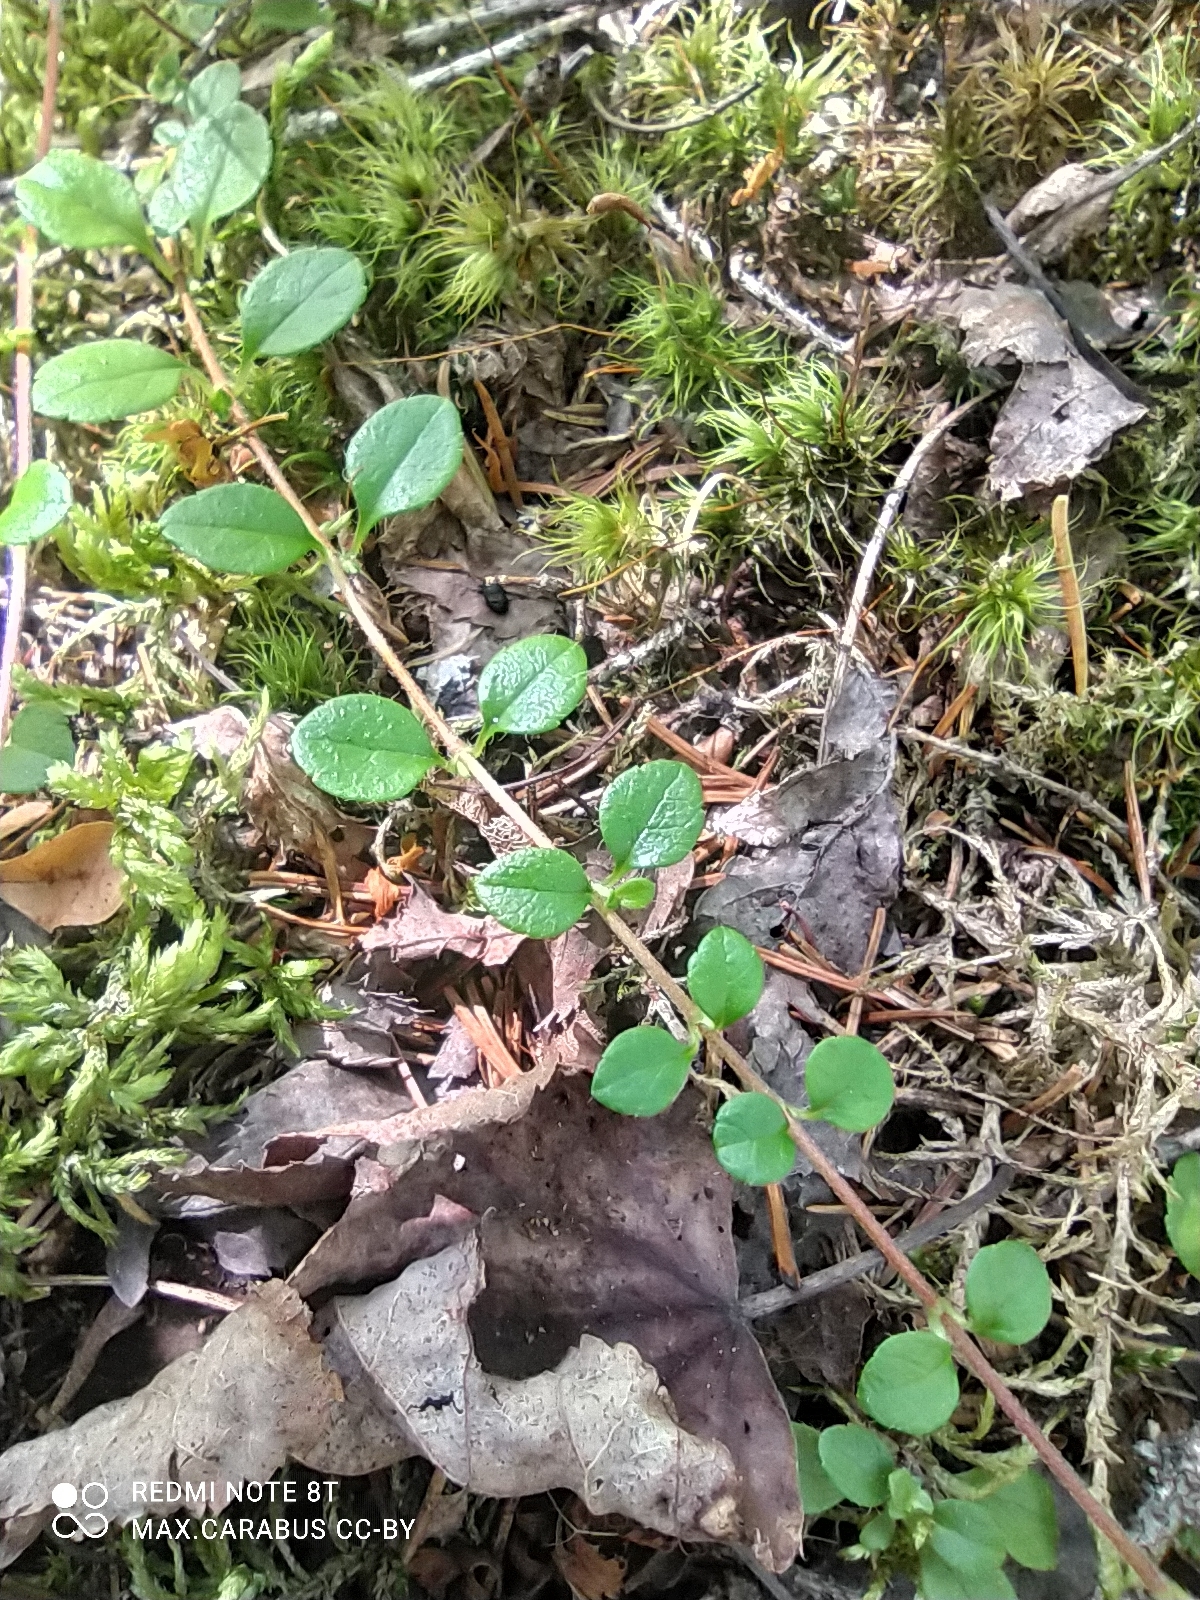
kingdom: Plantae
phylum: Tracheophyta
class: Magnoliopsida
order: Dipsacales
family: Caprifoliaceae
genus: Linnaea
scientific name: Linnaea borealis
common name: Twinflower
